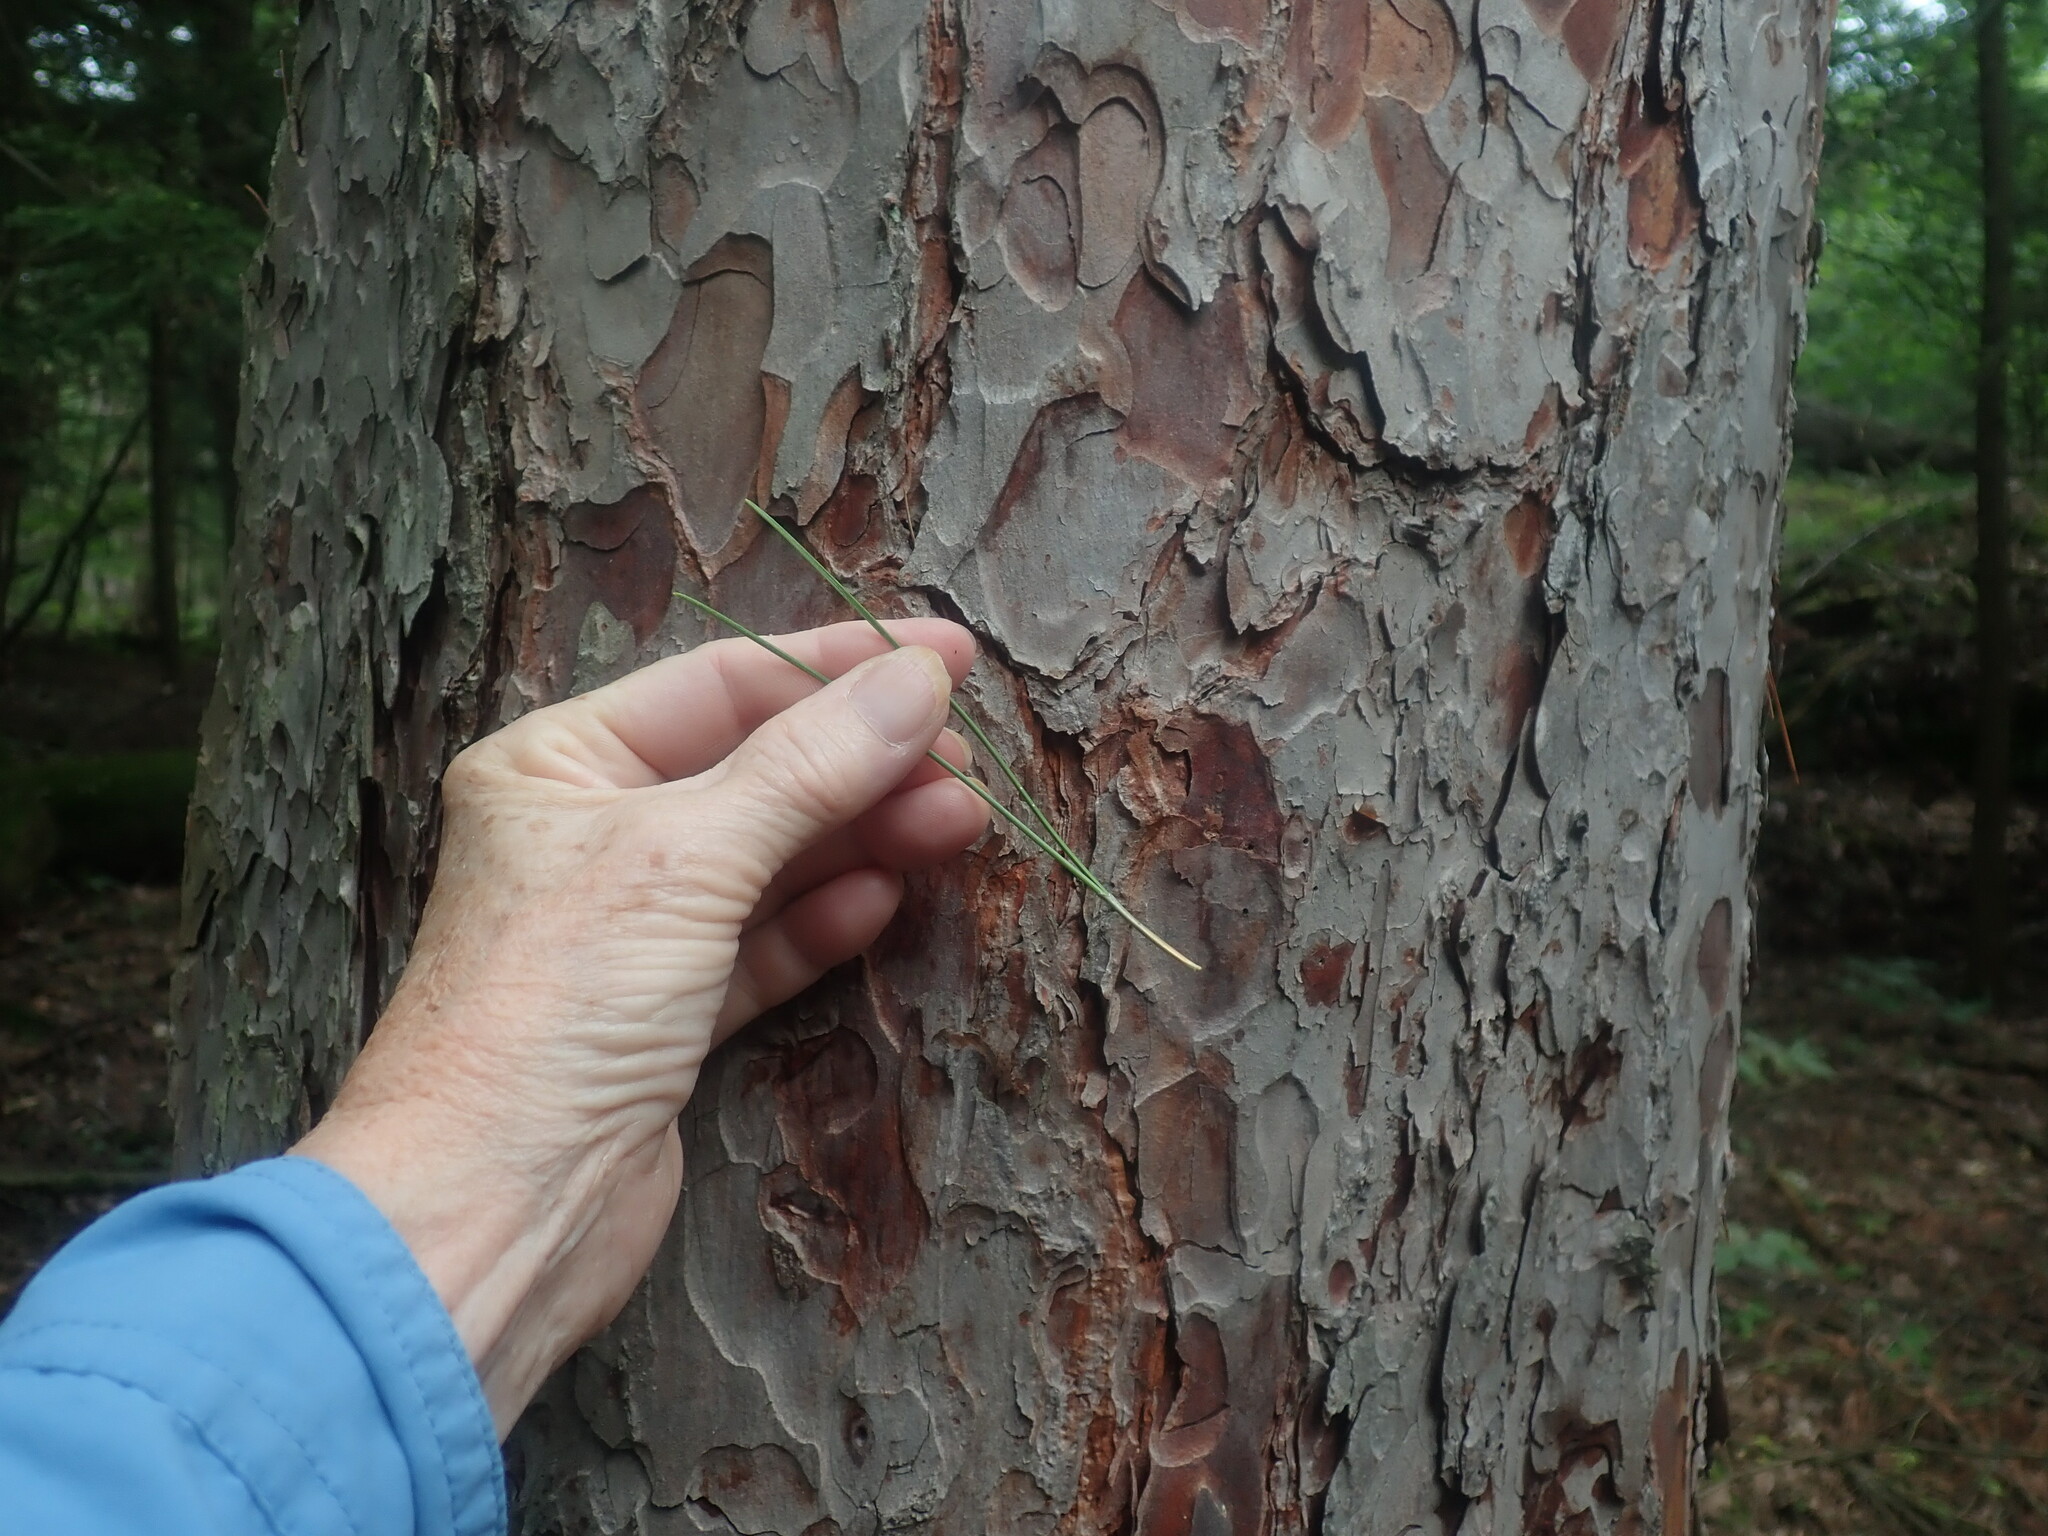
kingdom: Plantae
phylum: Tracheophyta
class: Pinopsida
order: Pinales
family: Pinaceae
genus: Pinus
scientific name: Pinus resinosa
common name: Norway pine
